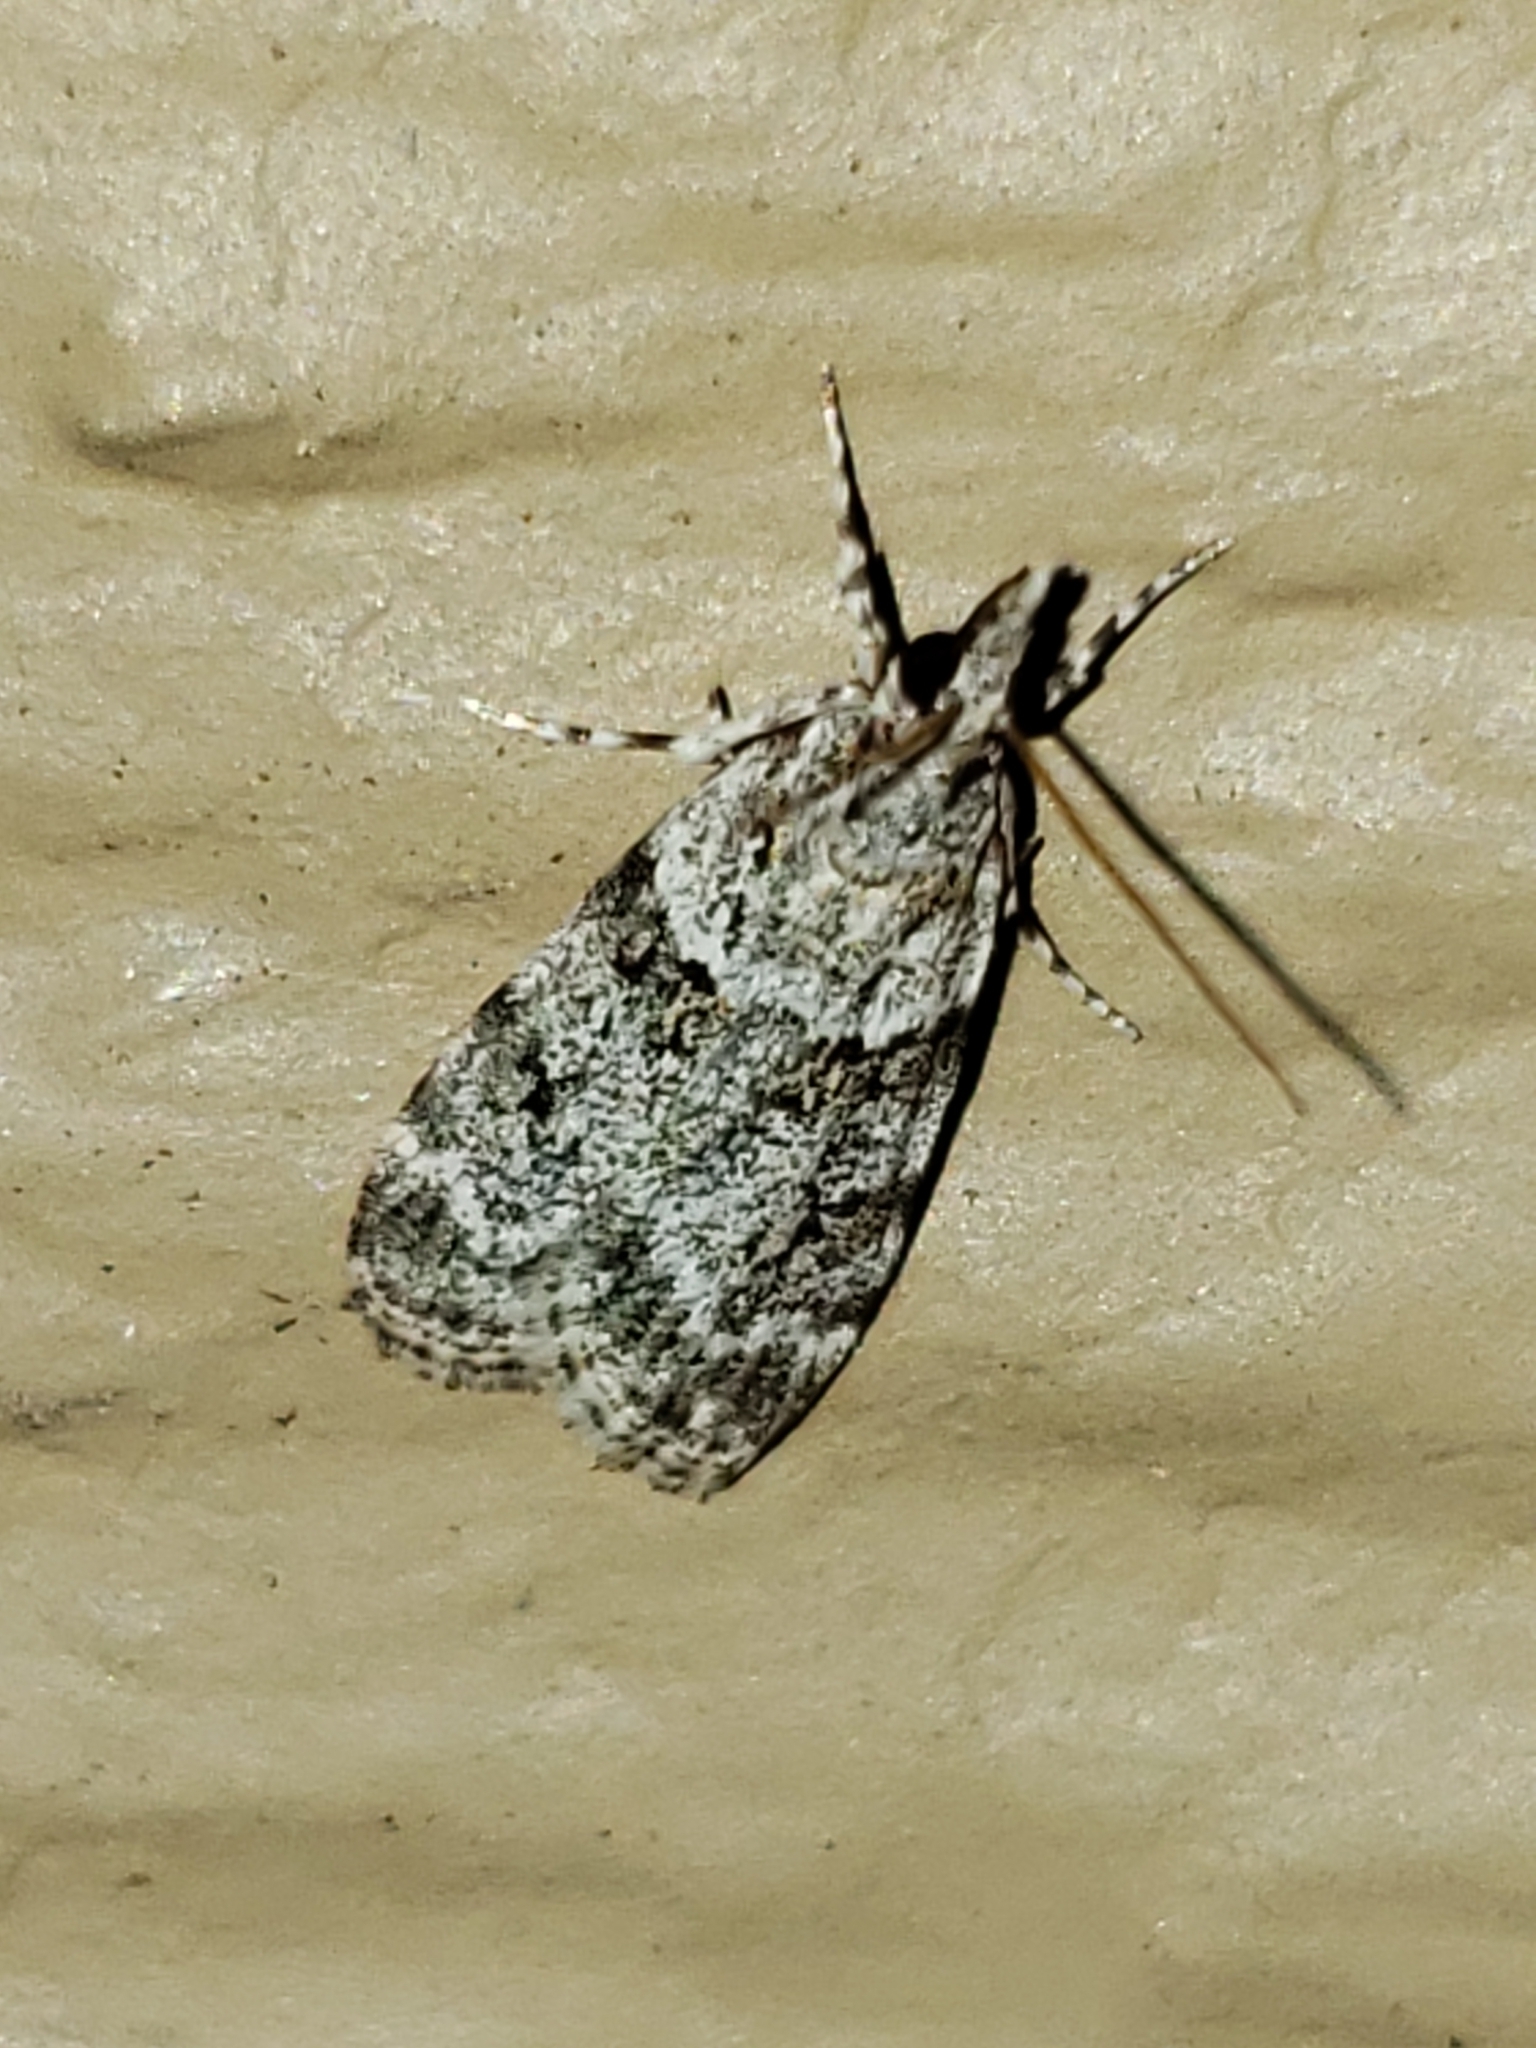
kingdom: Animalia
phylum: Arthropoda
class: Insecta
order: Lepidoptera
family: Crambidae
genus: Scoparia
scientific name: Scoparia biplagialis
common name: Double-striped scoparia moth
